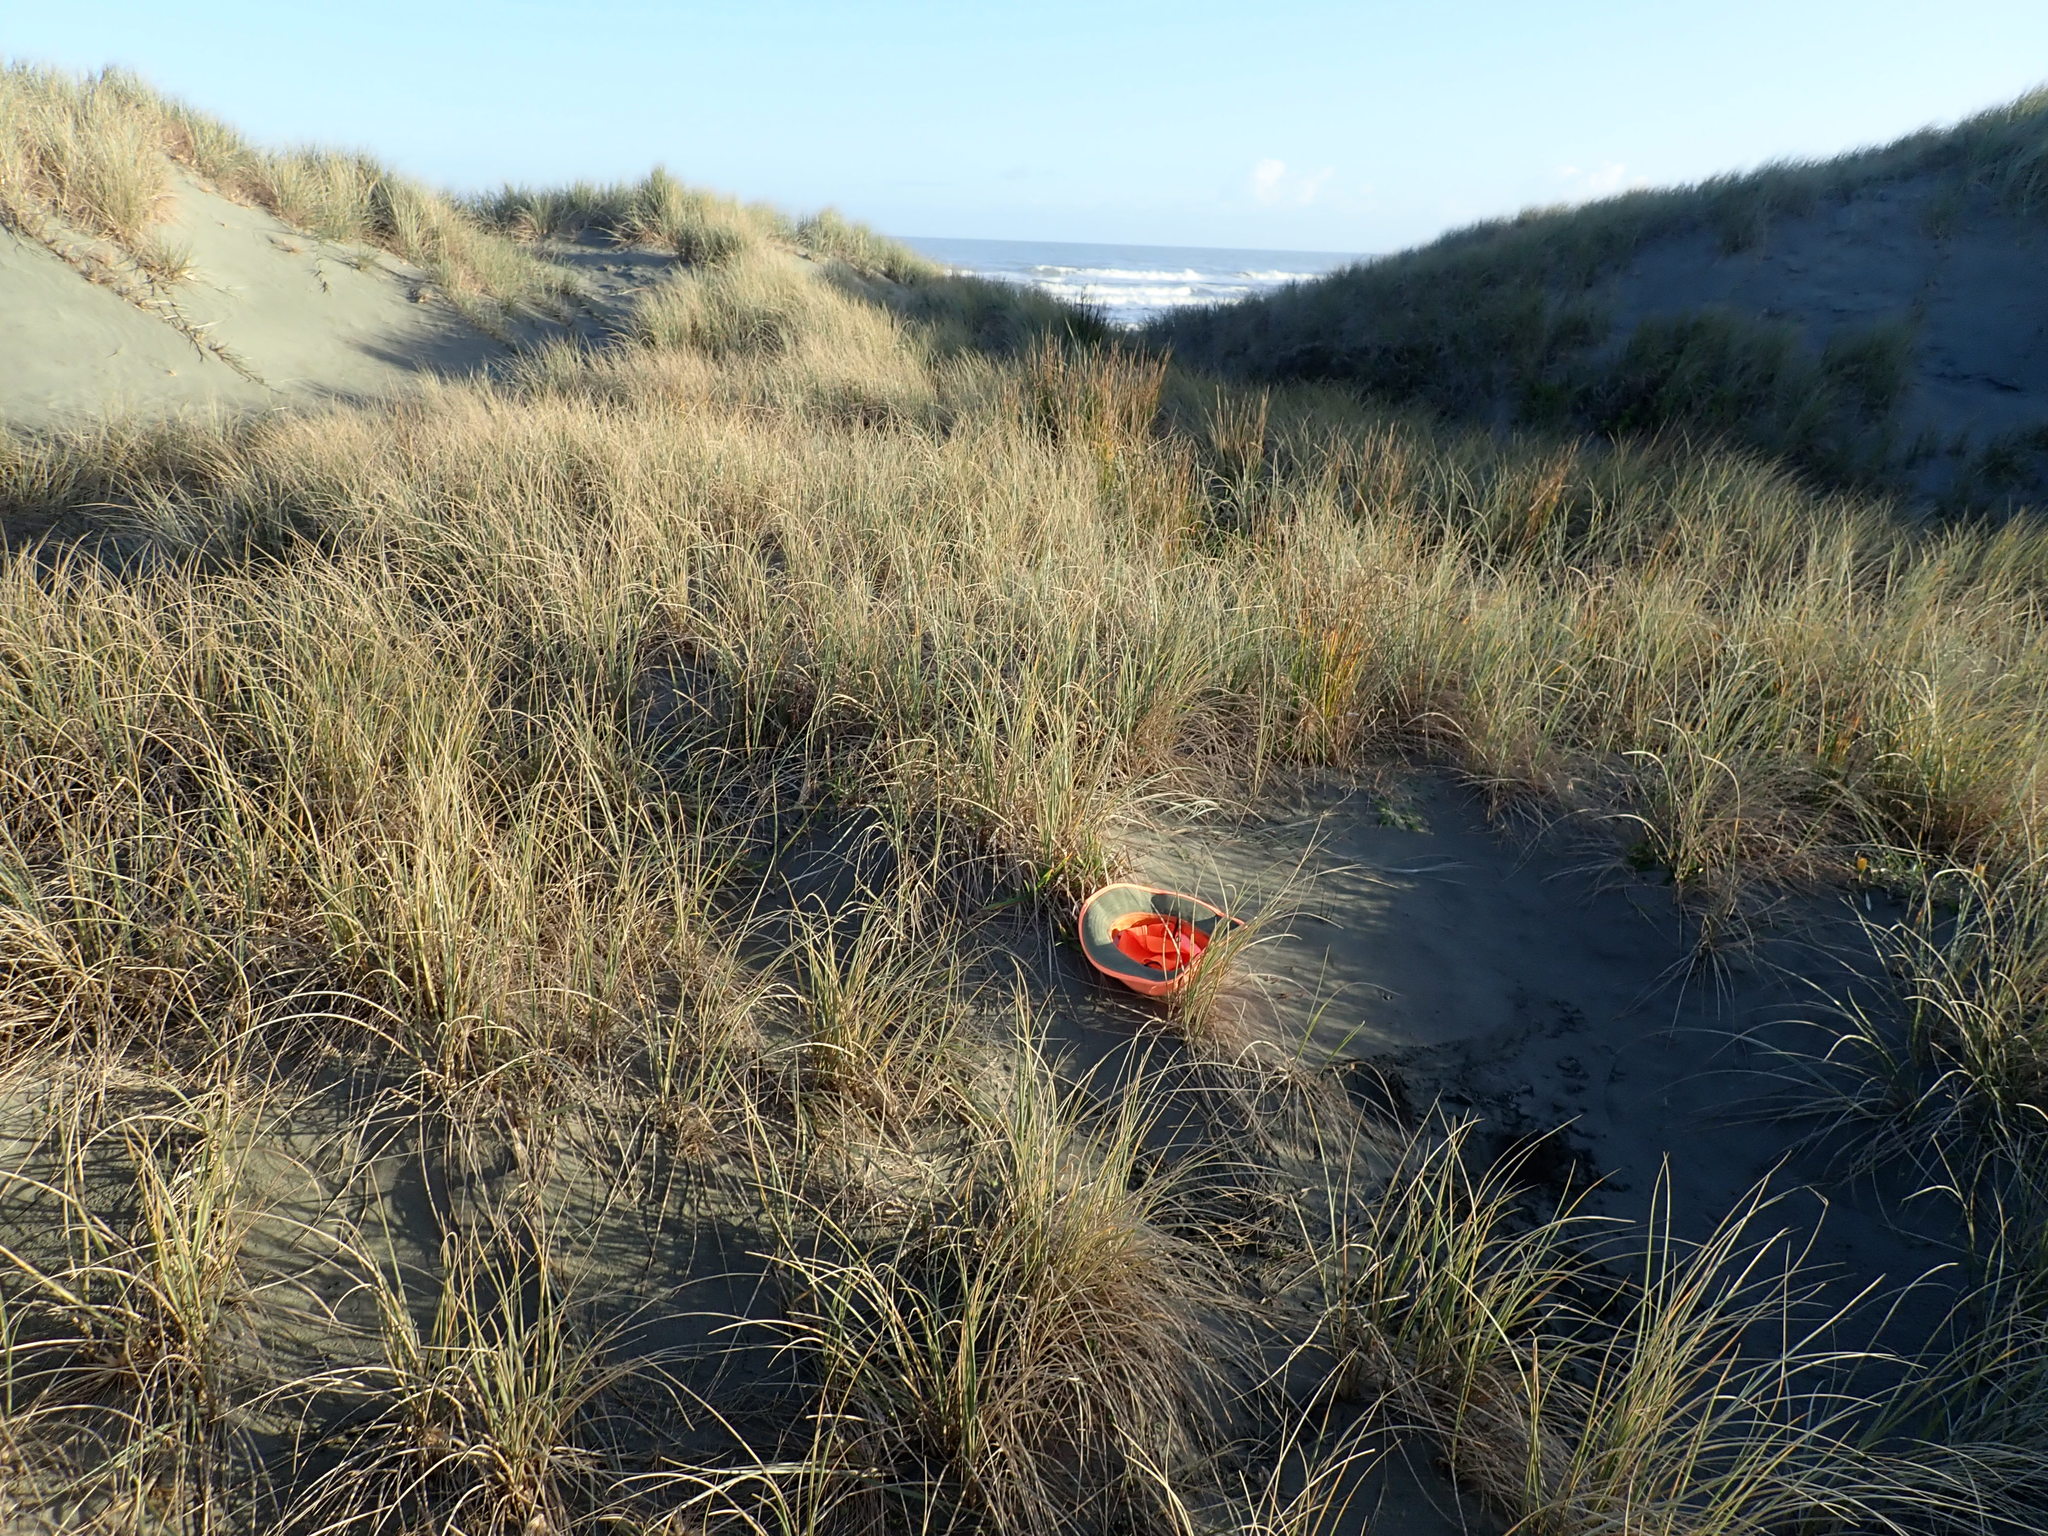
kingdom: Plantae
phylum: Tracheophyta
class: Liliopsida
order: Poales
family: Poaceae
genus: Lachnagrostis
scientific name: Lachnagrostis billardierei
